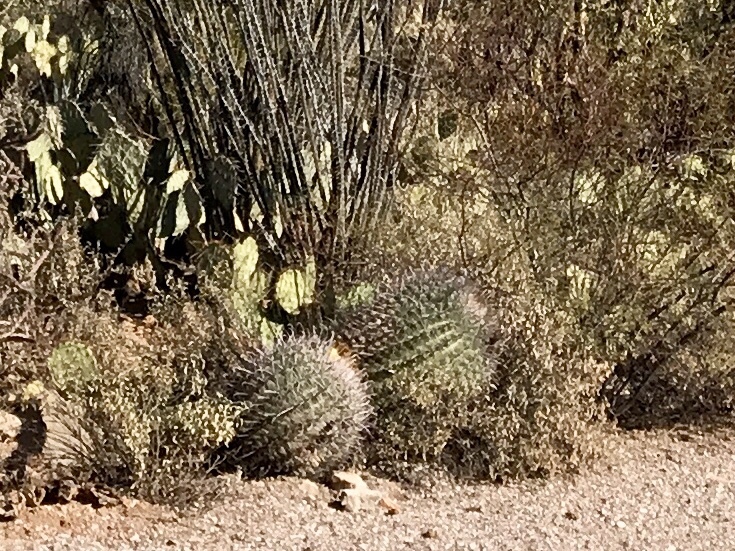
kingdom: Plantae
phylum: Tracheophyta
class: Magnoliopsida
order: Caryophyllales
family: Cactaceae
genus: Ferocactus
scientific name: Ferocactus wislizeni
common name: Candy barrel cactus
